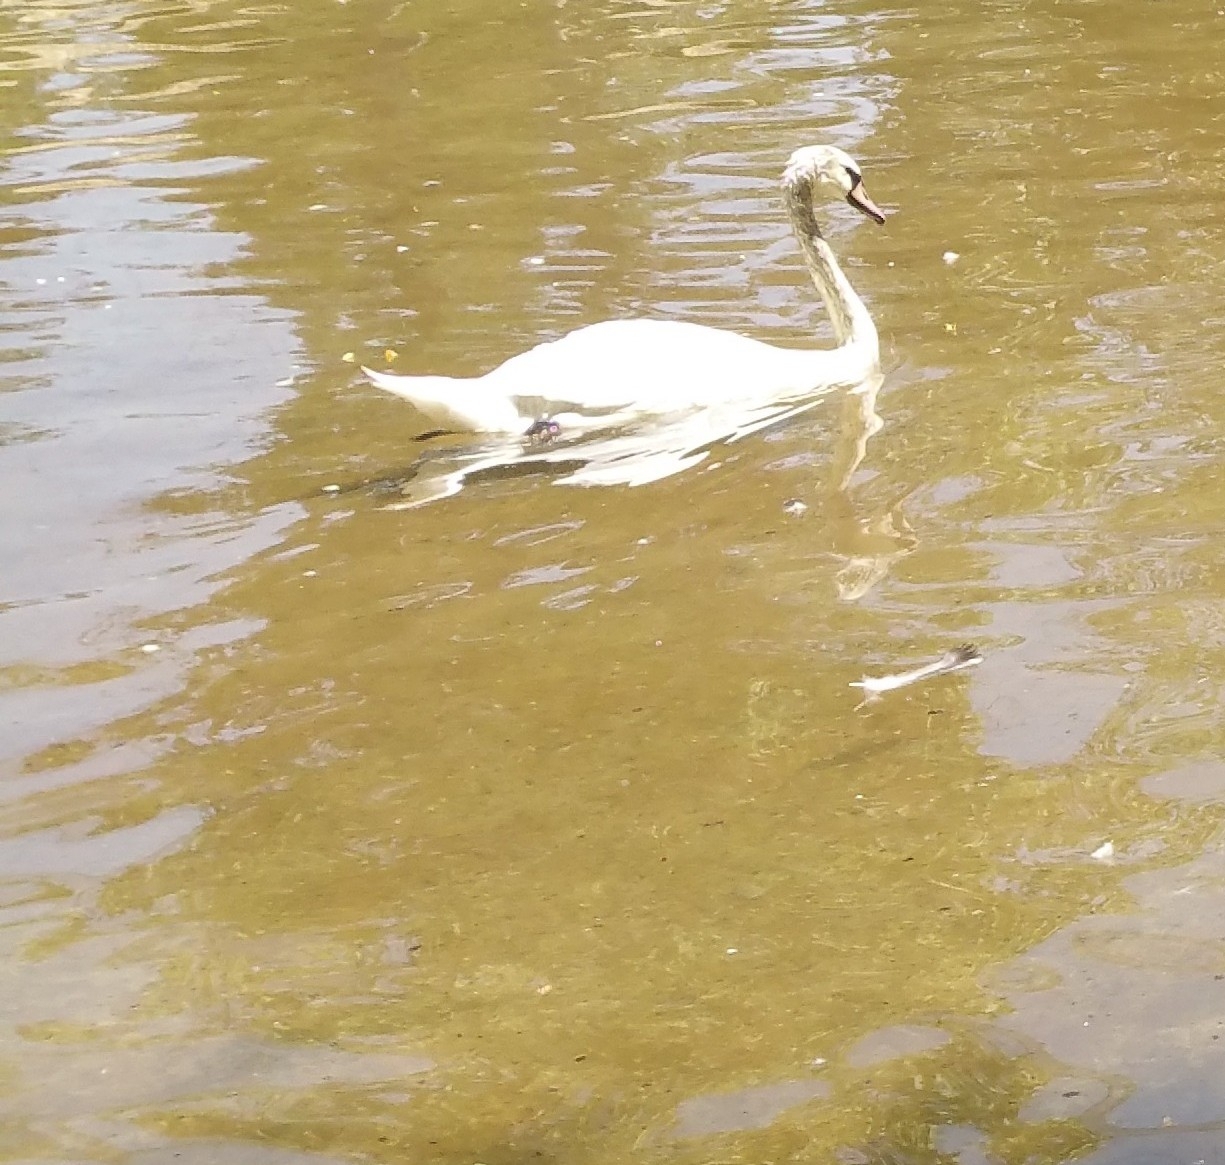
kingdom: Animalia
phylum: Chordata
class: Aves
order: Anseriformes
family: Anatidae
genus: Cygnus
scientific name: Cygnus olor
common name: Mute swan
